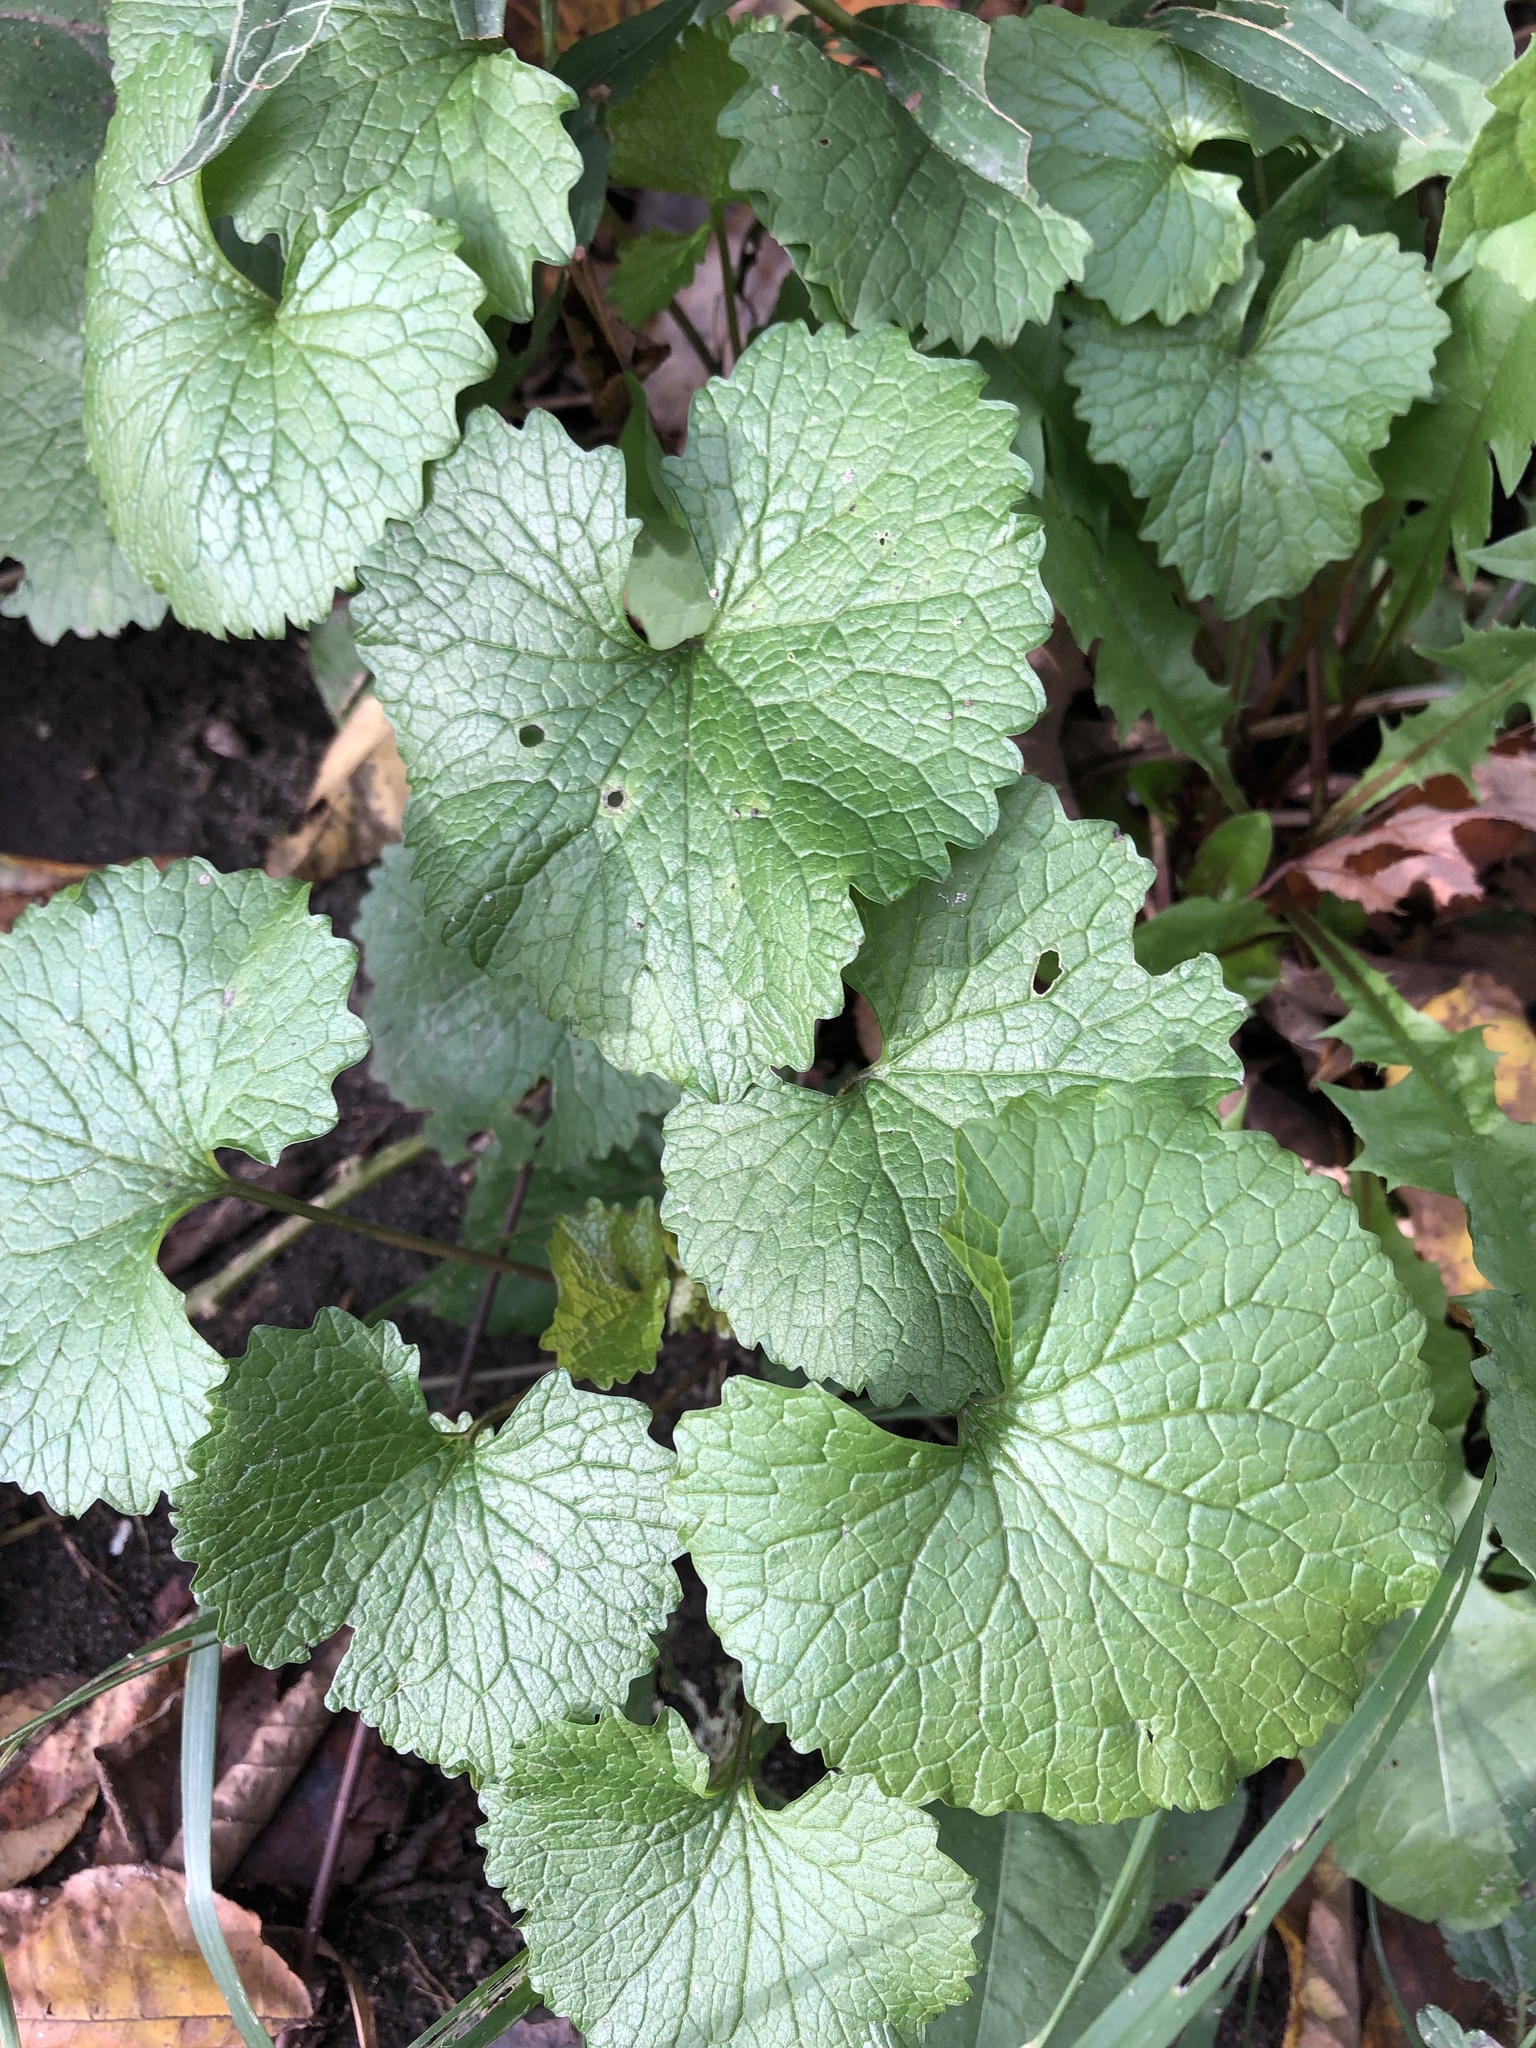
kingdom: Plantae
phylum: Tracheophyta
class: Magnoliopsida
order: Brassicales
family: Brassicaceae
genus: Alliaria
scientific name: Alliaria petiolata
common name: Garlic mustard
